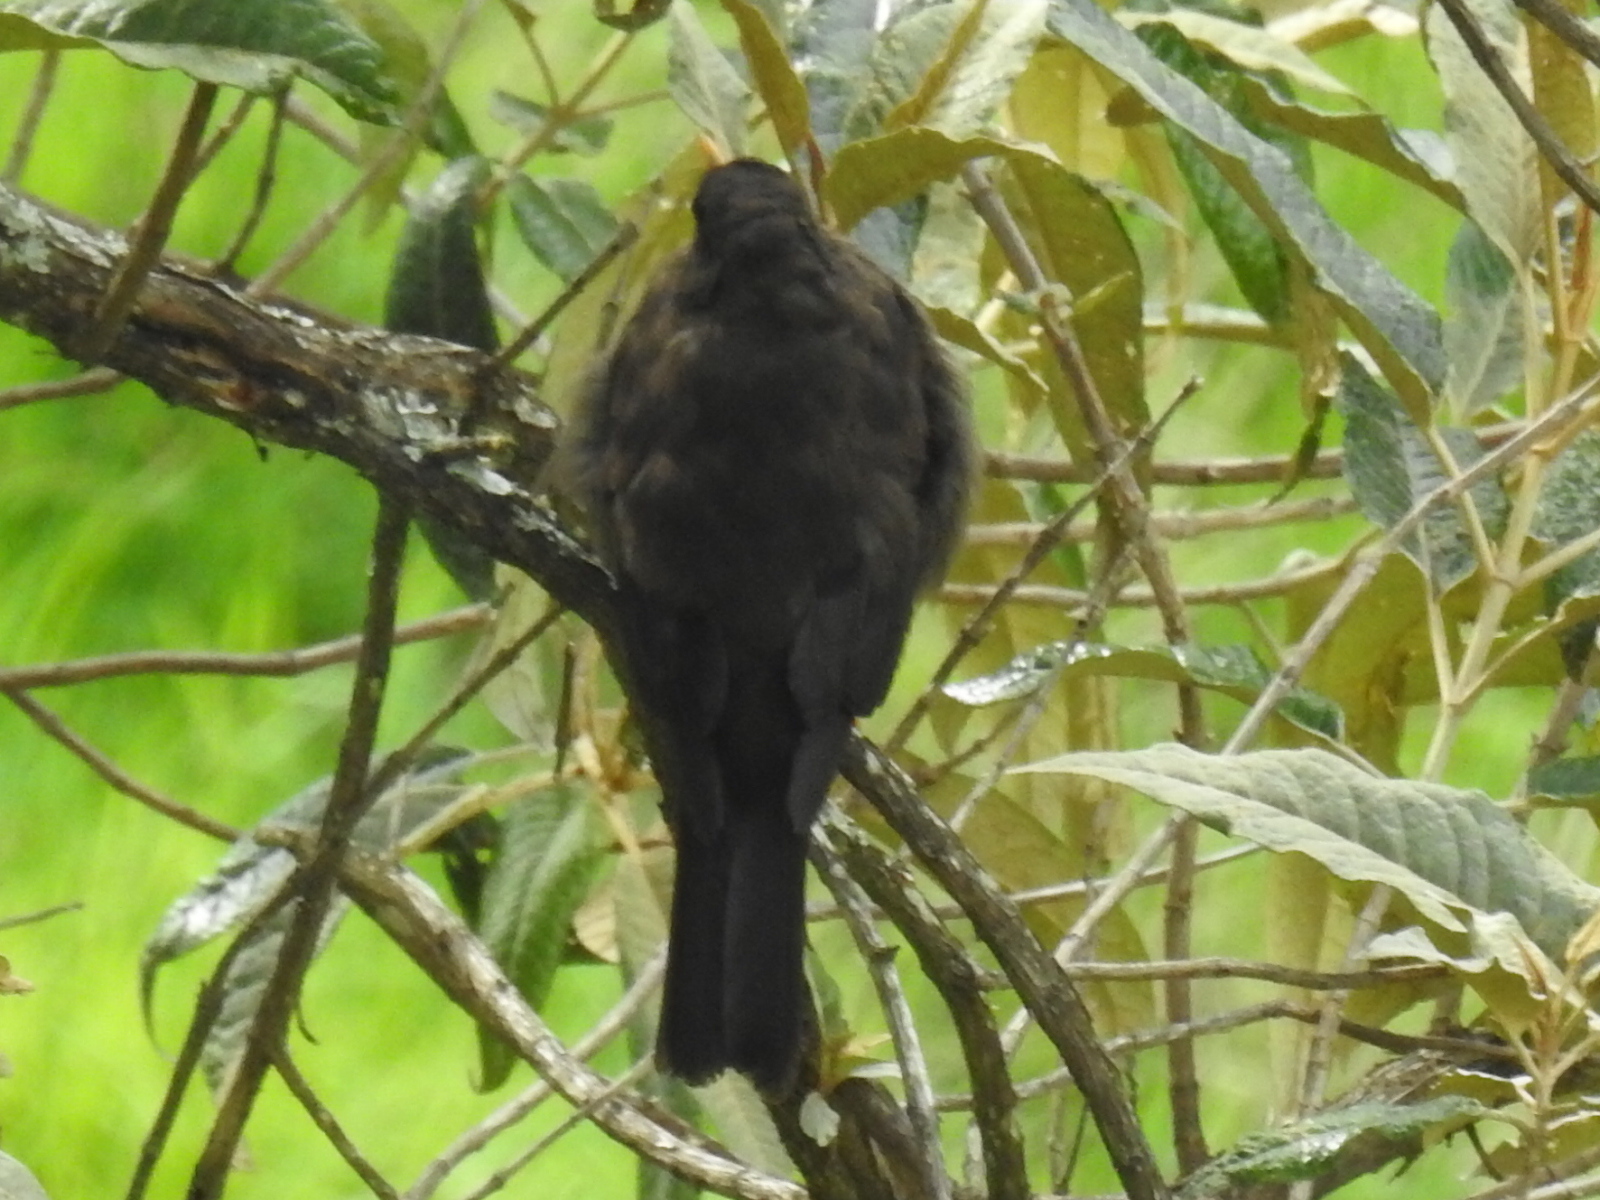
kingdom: Animalia
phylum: Chordata
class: Aves
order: Passeriformes
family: Turdidae
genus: Turdus
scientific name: Turdus nigrescens
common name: Sooty thrush
